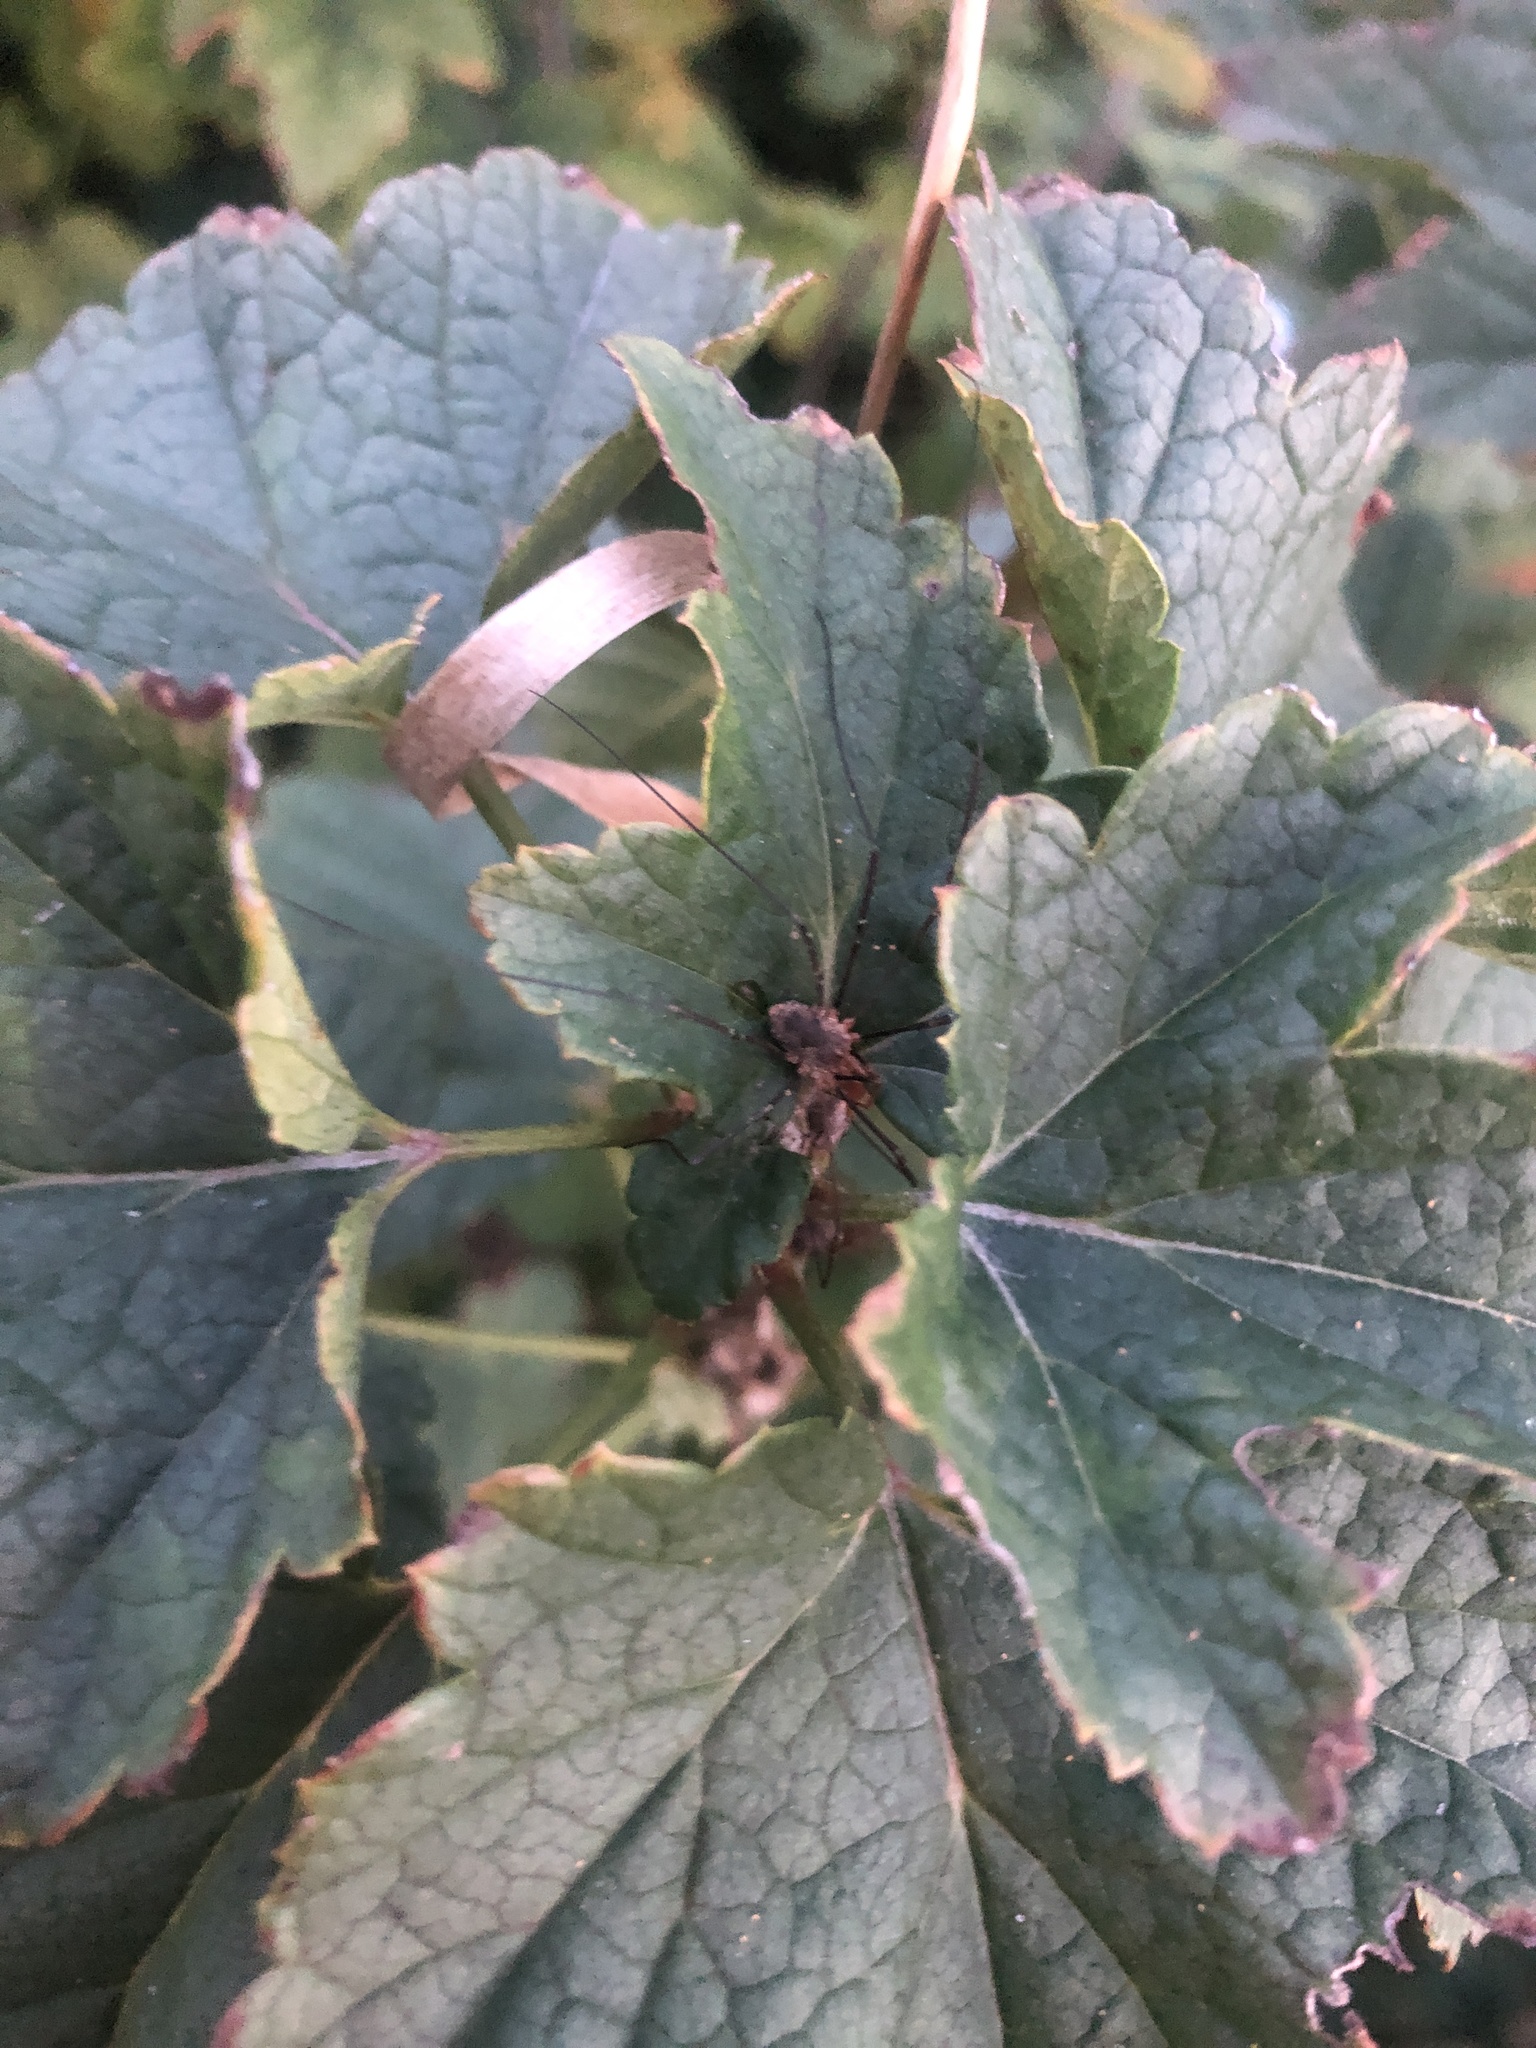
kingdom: Animalia
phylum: Arthropoda
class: Arachnida
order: Opiliones
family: Phalangiidae
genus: Phalangium
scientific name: Phalangium opilio
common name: Daddy longleg
